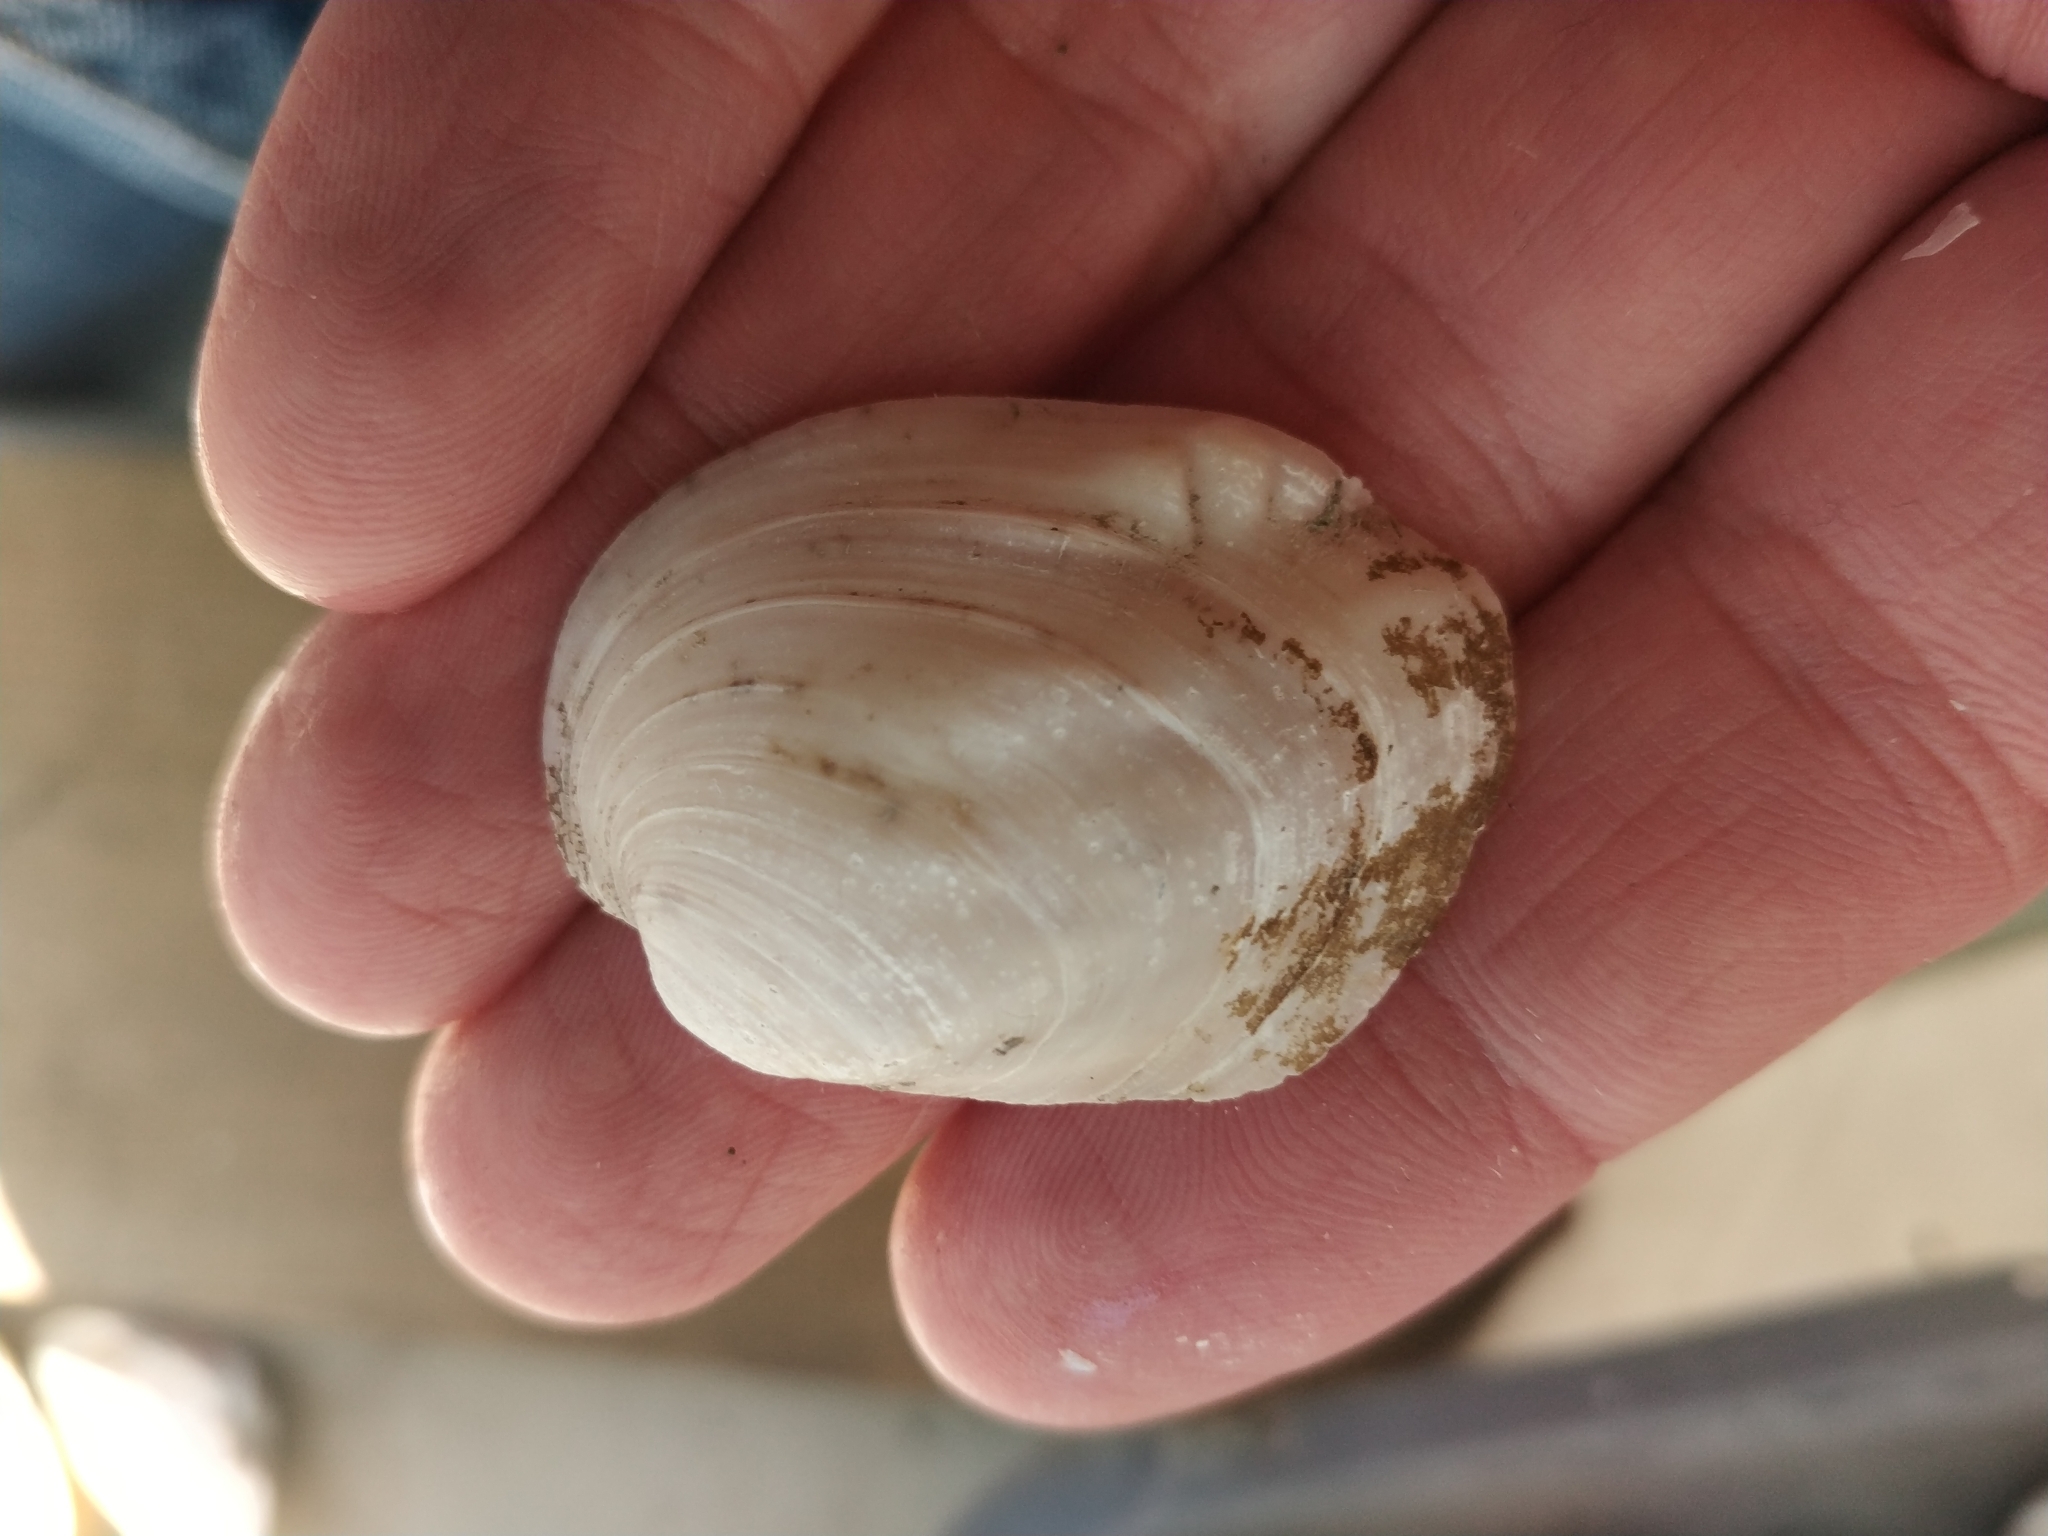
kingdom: Animalia
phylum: Mollusca
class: Bivalvia
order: Unionida
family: Unionidae
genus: Amblema
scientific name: Amblema plicata
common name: Threeridge
